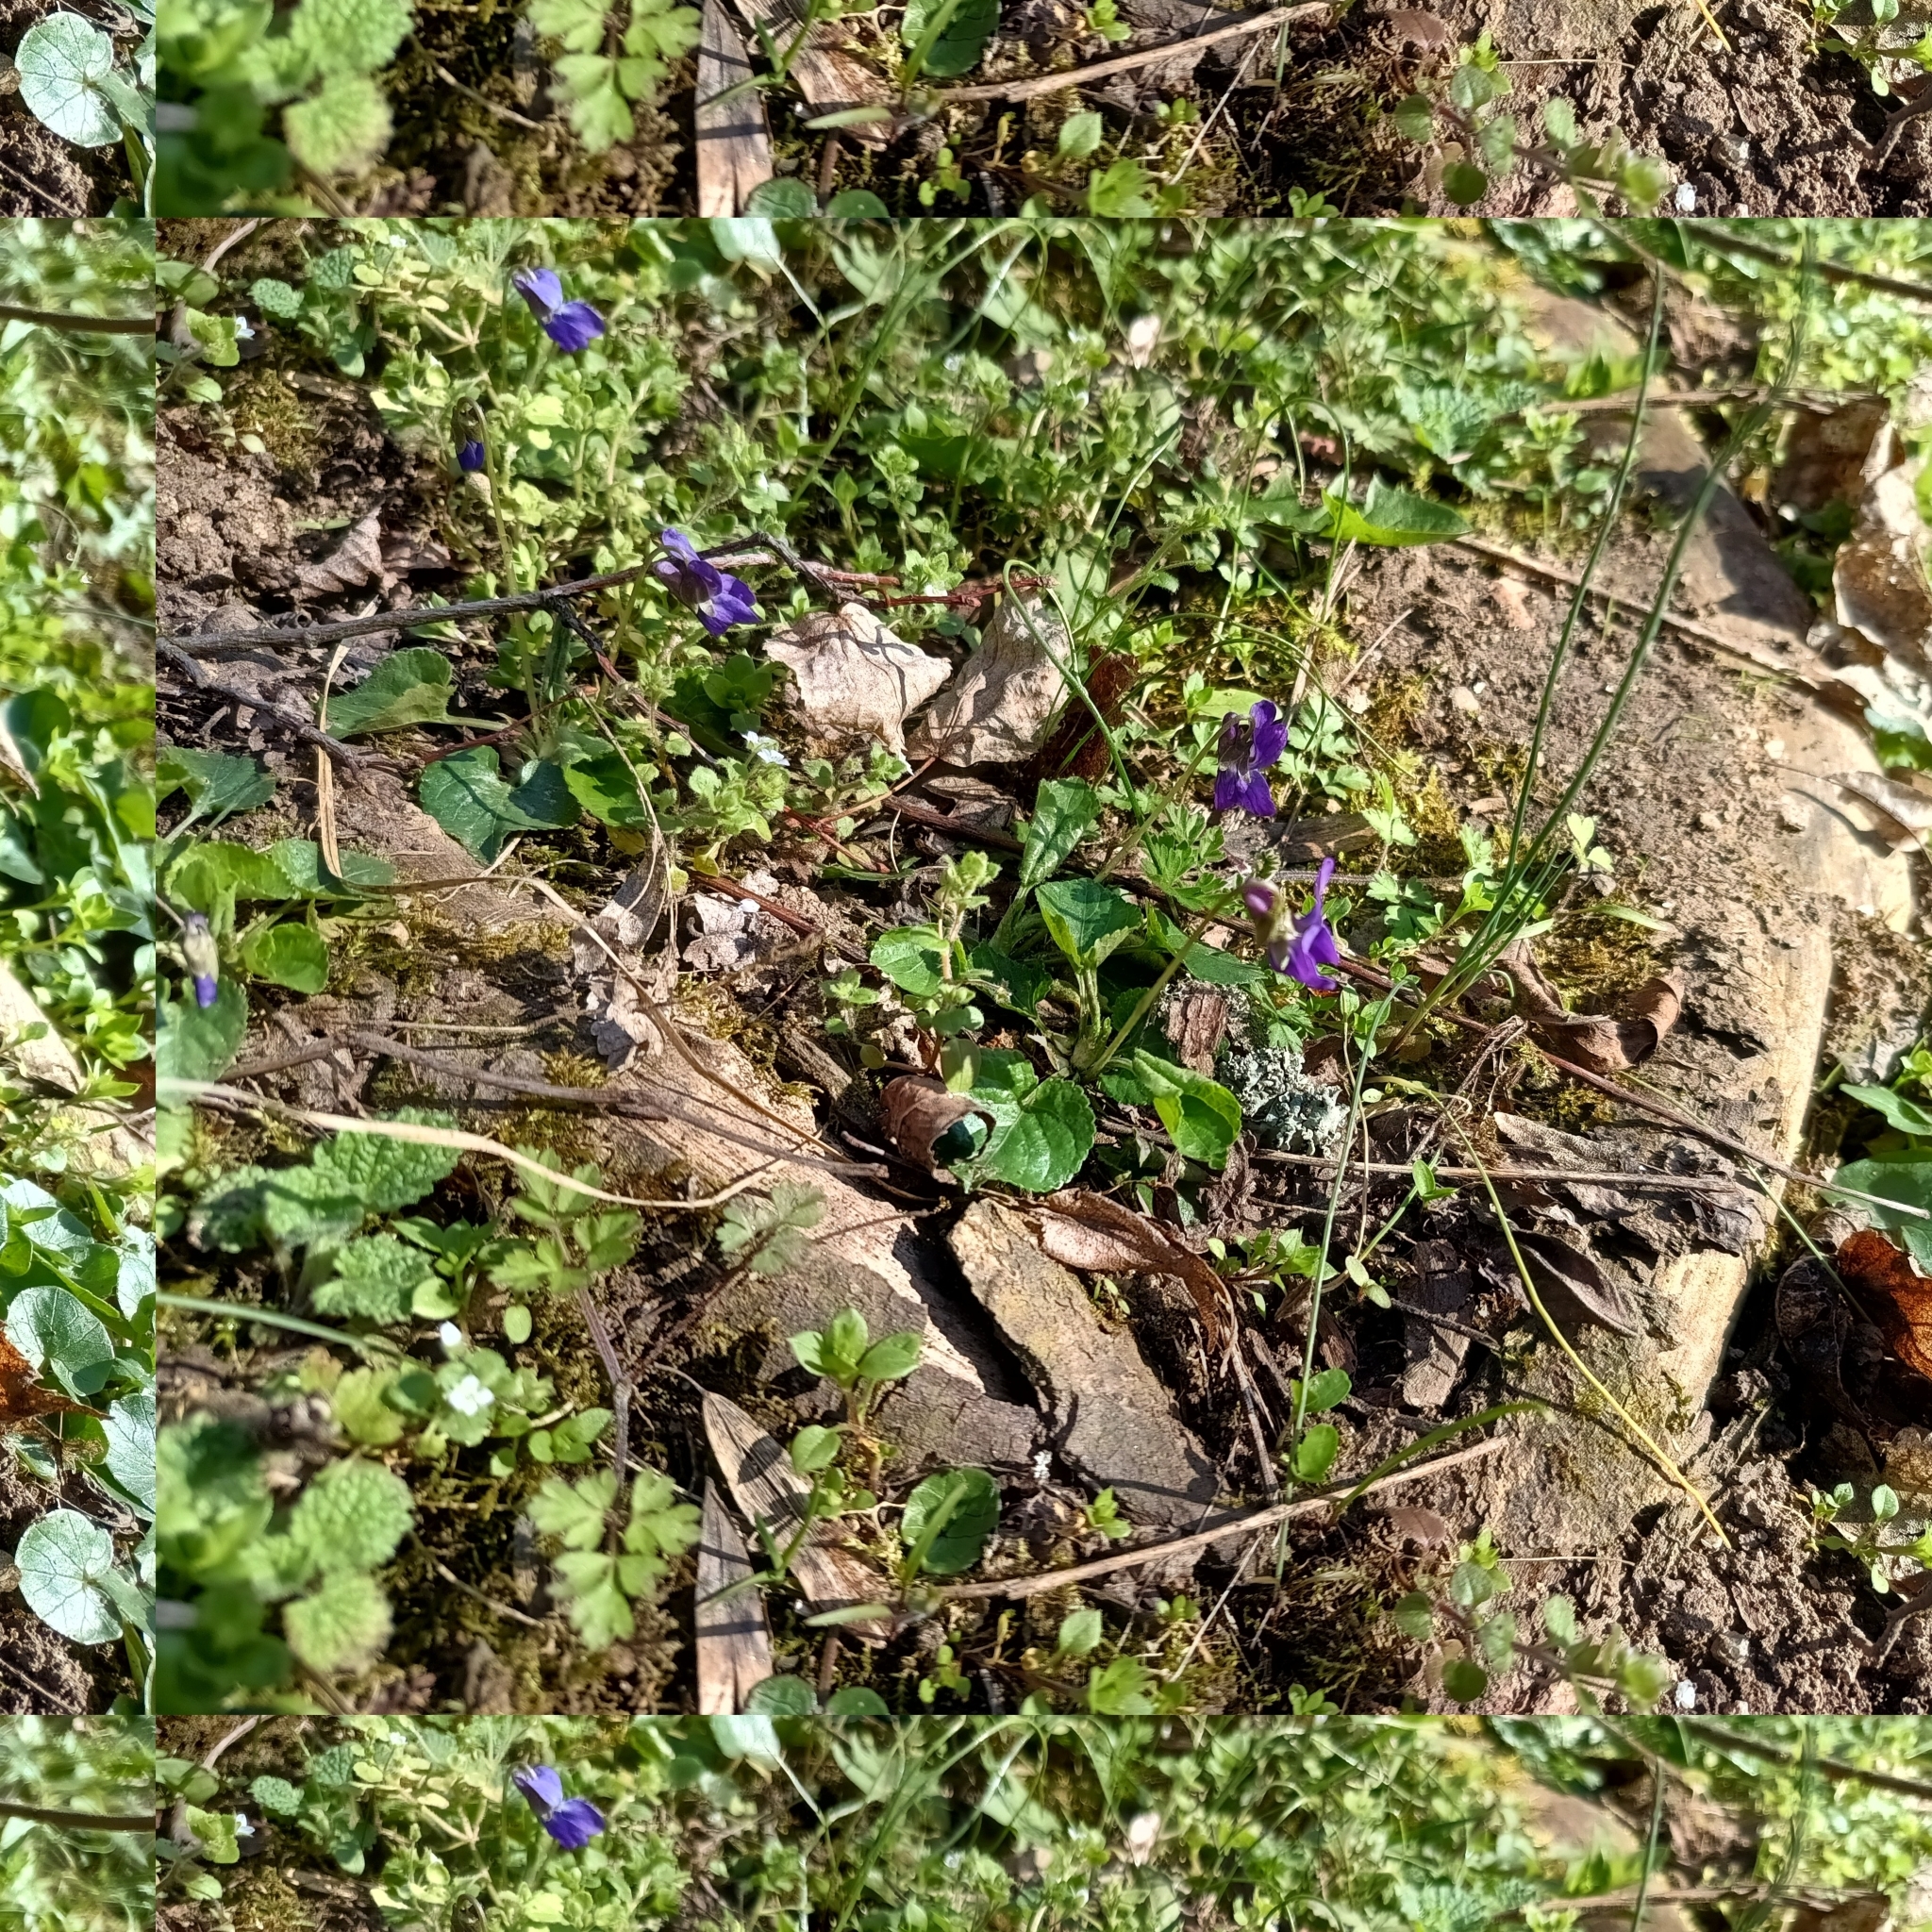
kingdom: Plantae
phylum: Tracheophyta
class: Magnoliopsida
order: Malpighiales
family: Violaceae
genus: Viola
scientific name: Viola odorata
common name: Sweet violet
